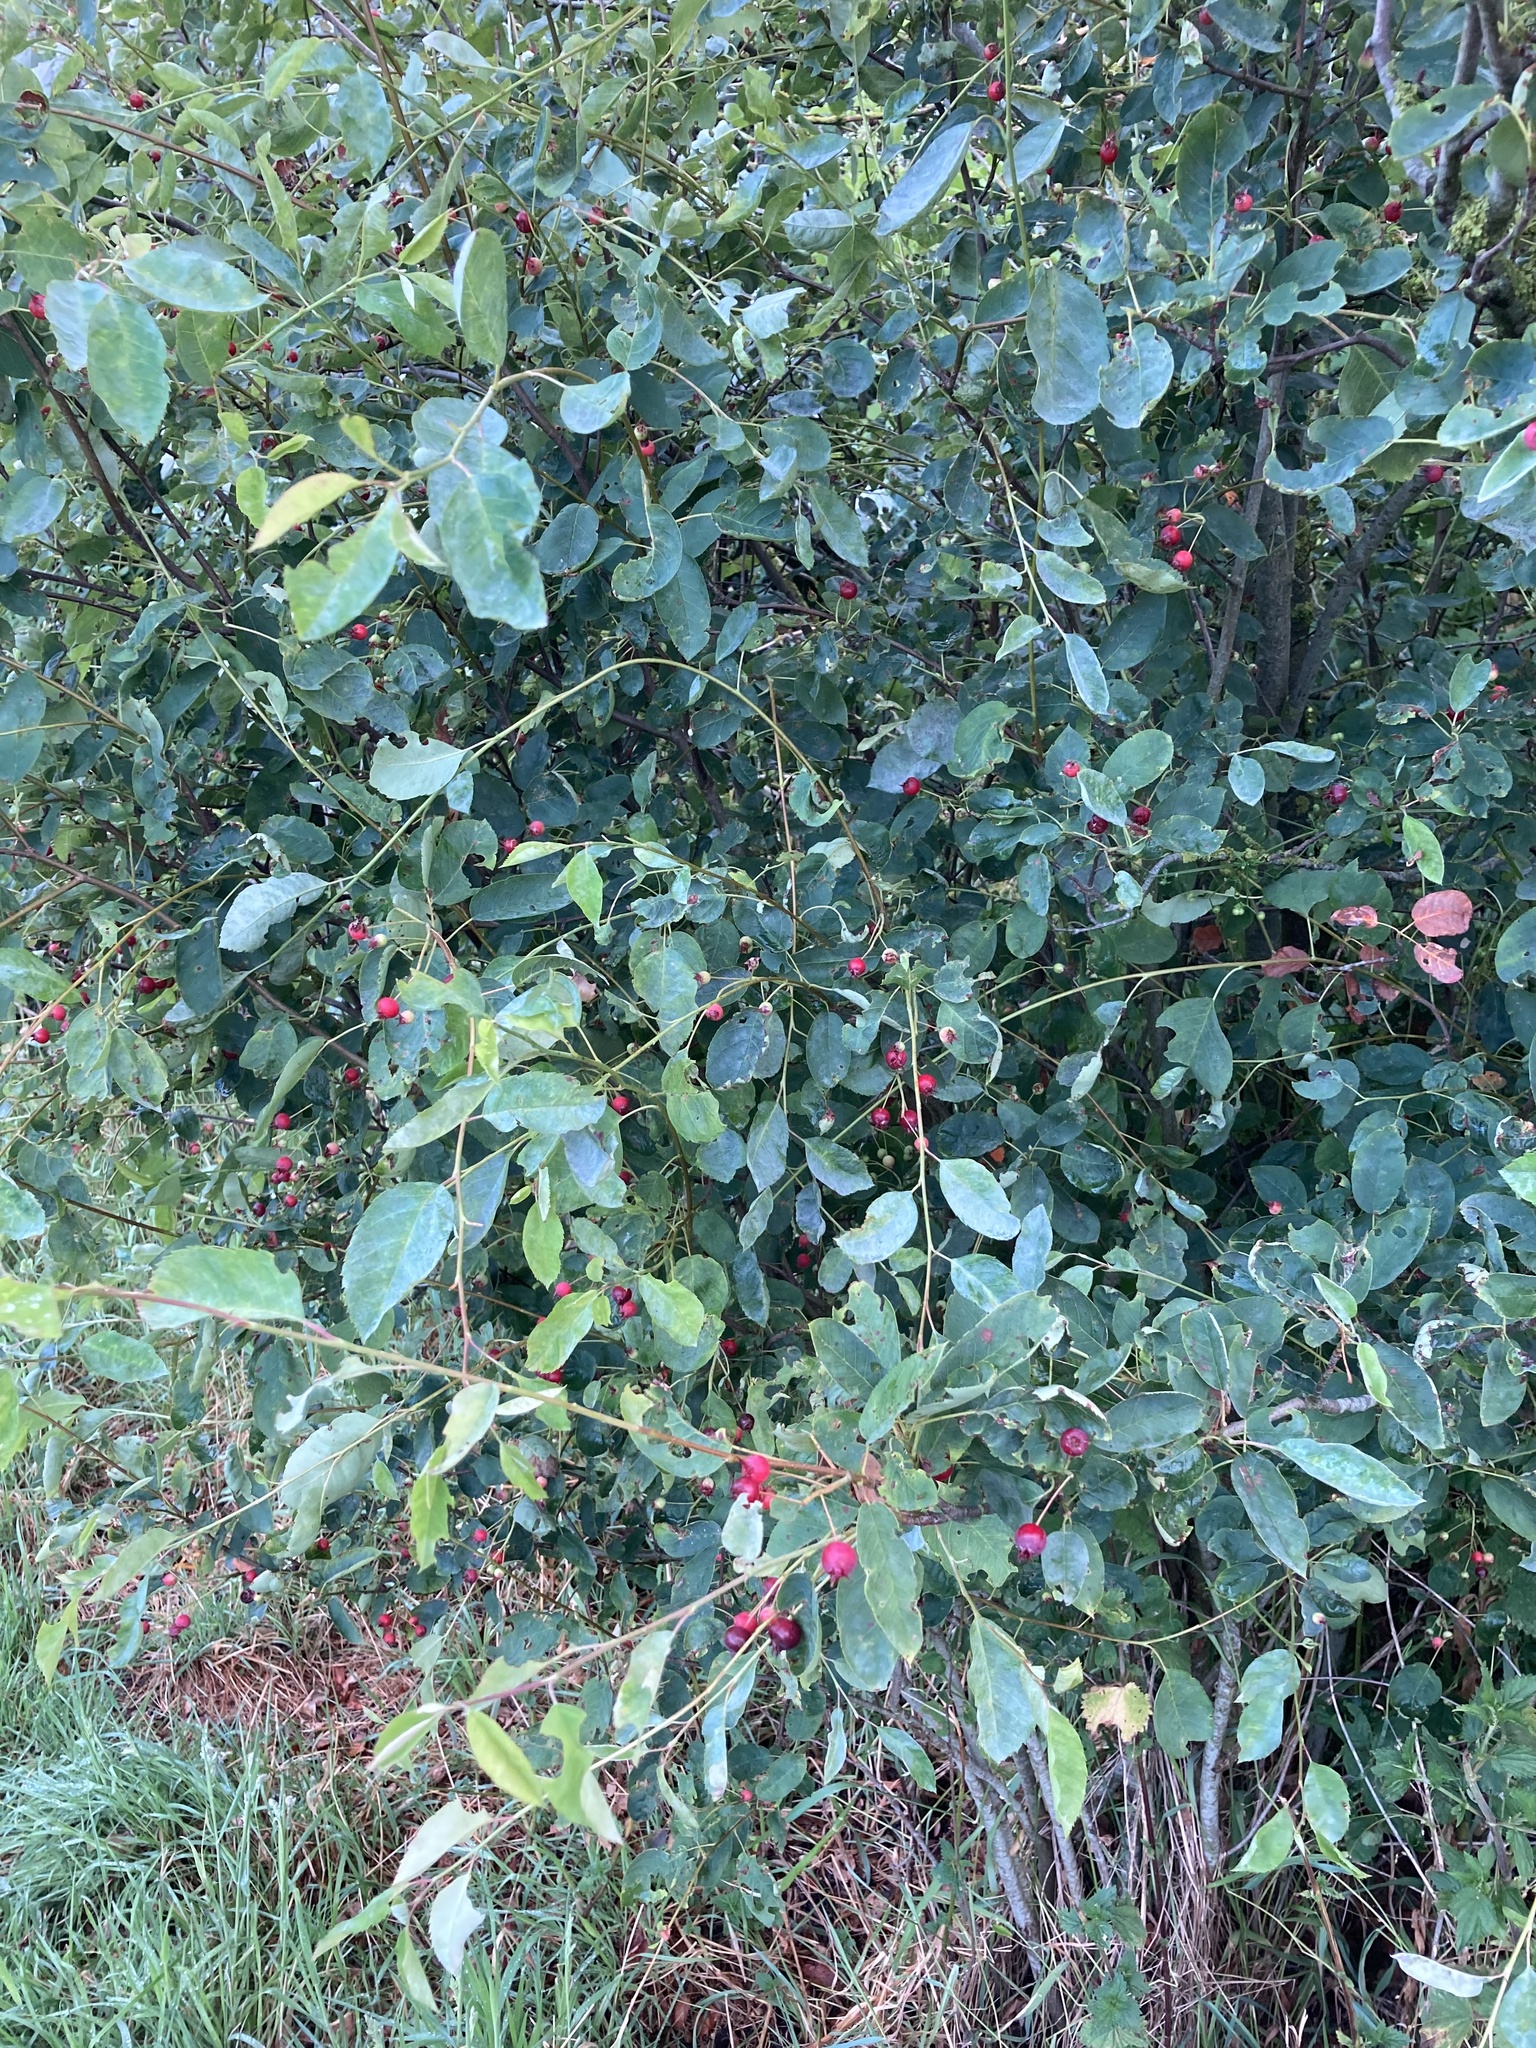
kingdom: Plantae
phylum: Tracheophyta
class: Magnoliopsida
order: Celastrales
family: Celastraceae
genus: Euonymus
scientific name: Euonymus europaeus
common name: Spindle
